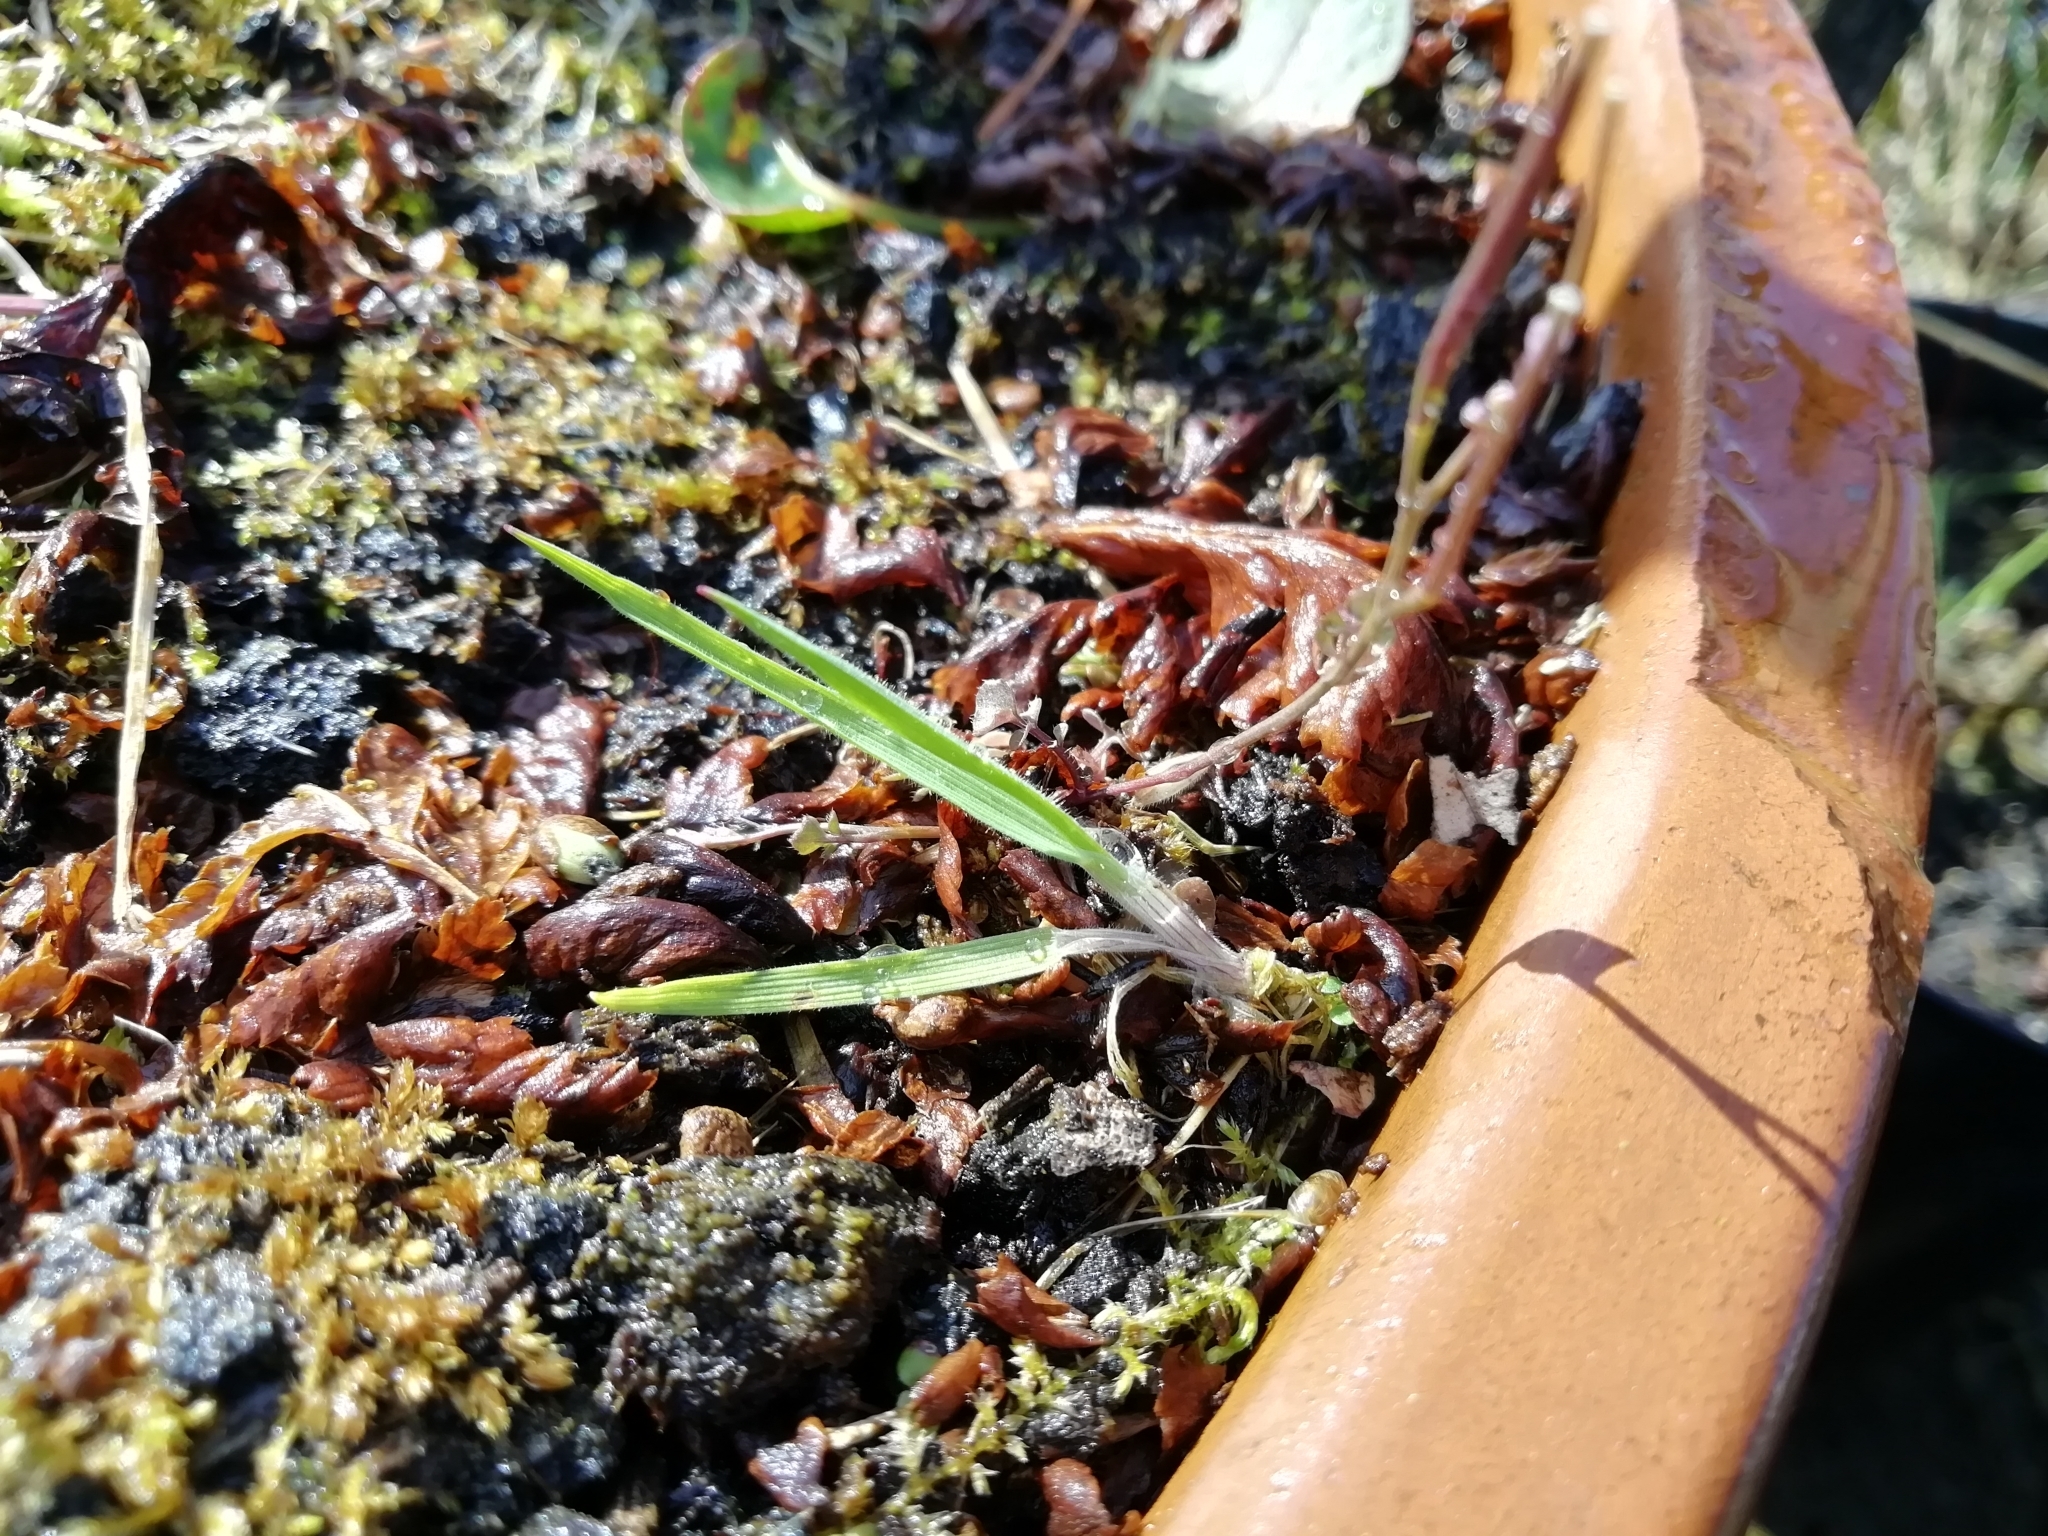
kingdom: Plantae
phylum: Tracheophyta
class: Liliopsida
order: Poales
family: Poaceae
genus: Holcus
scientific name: Holcus lanatus
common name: Yorkshire-fog
